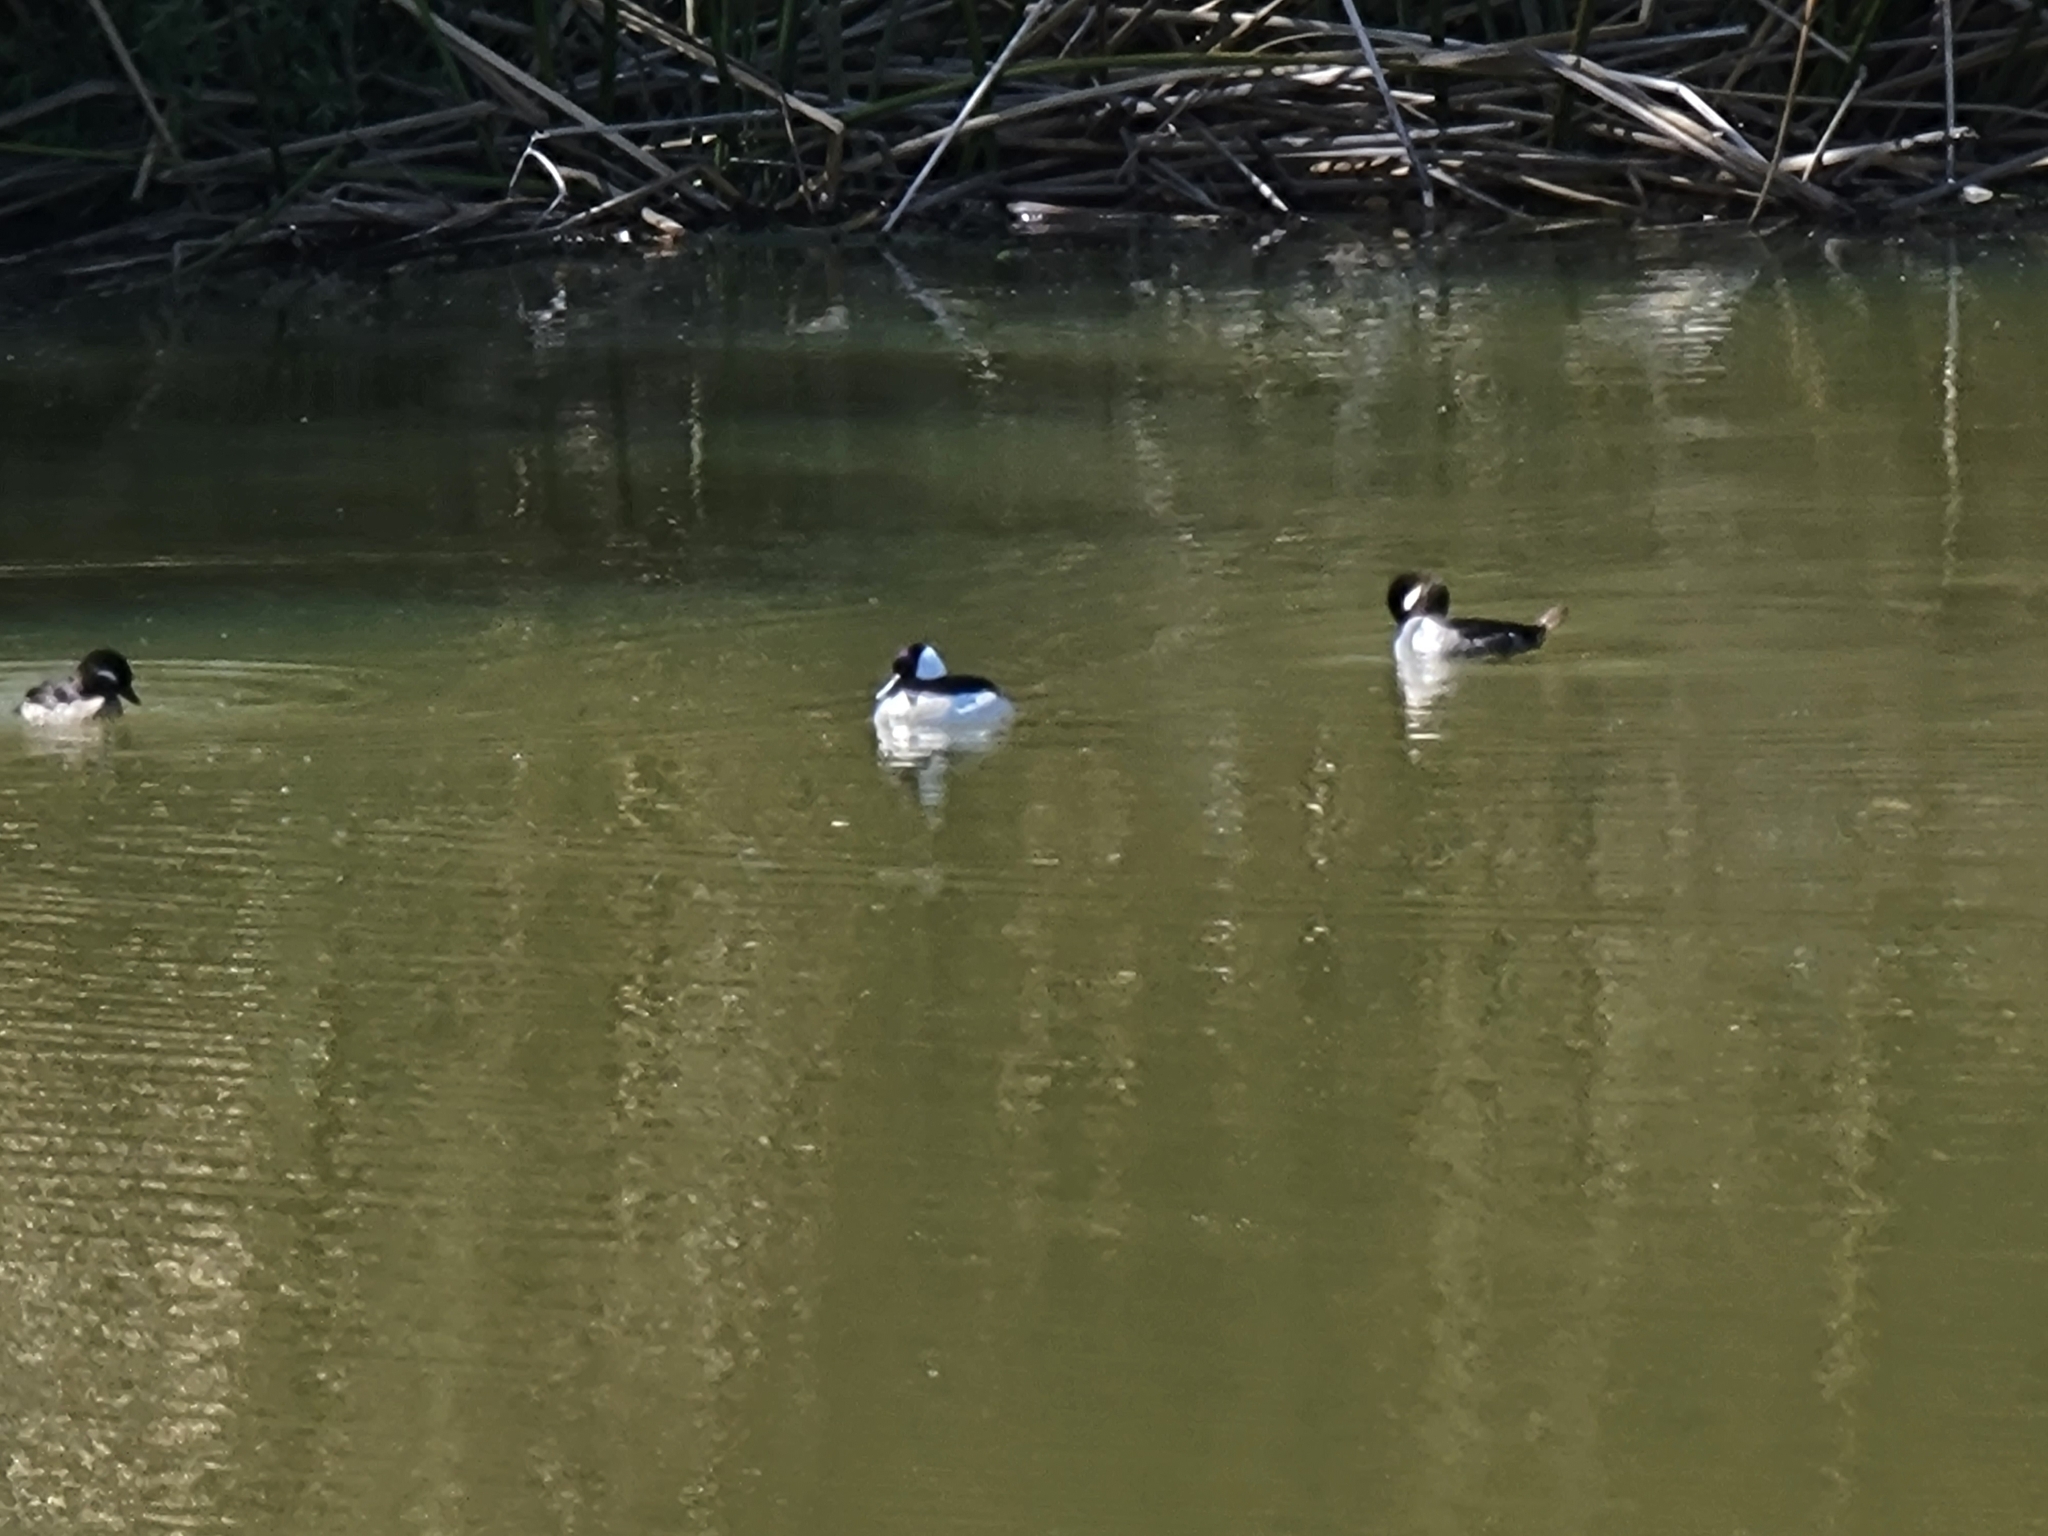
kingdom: Animalia
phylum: Chordata
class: Aves
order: Anseriformes
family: Anatidae
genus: Bucephala
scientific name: Bucephala albeola
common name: Bufflehead
